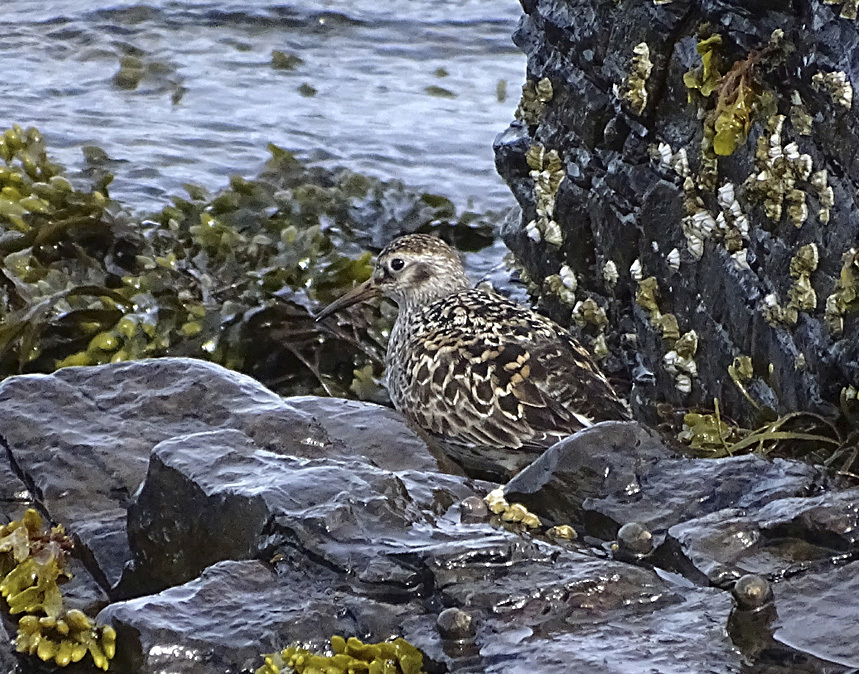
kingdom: Animalia
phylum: Chordata
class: Aves
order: Charadriiformes
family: Scolopacidae
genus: Calidris
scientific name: Calidris maritima
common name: Purple sandpiper
